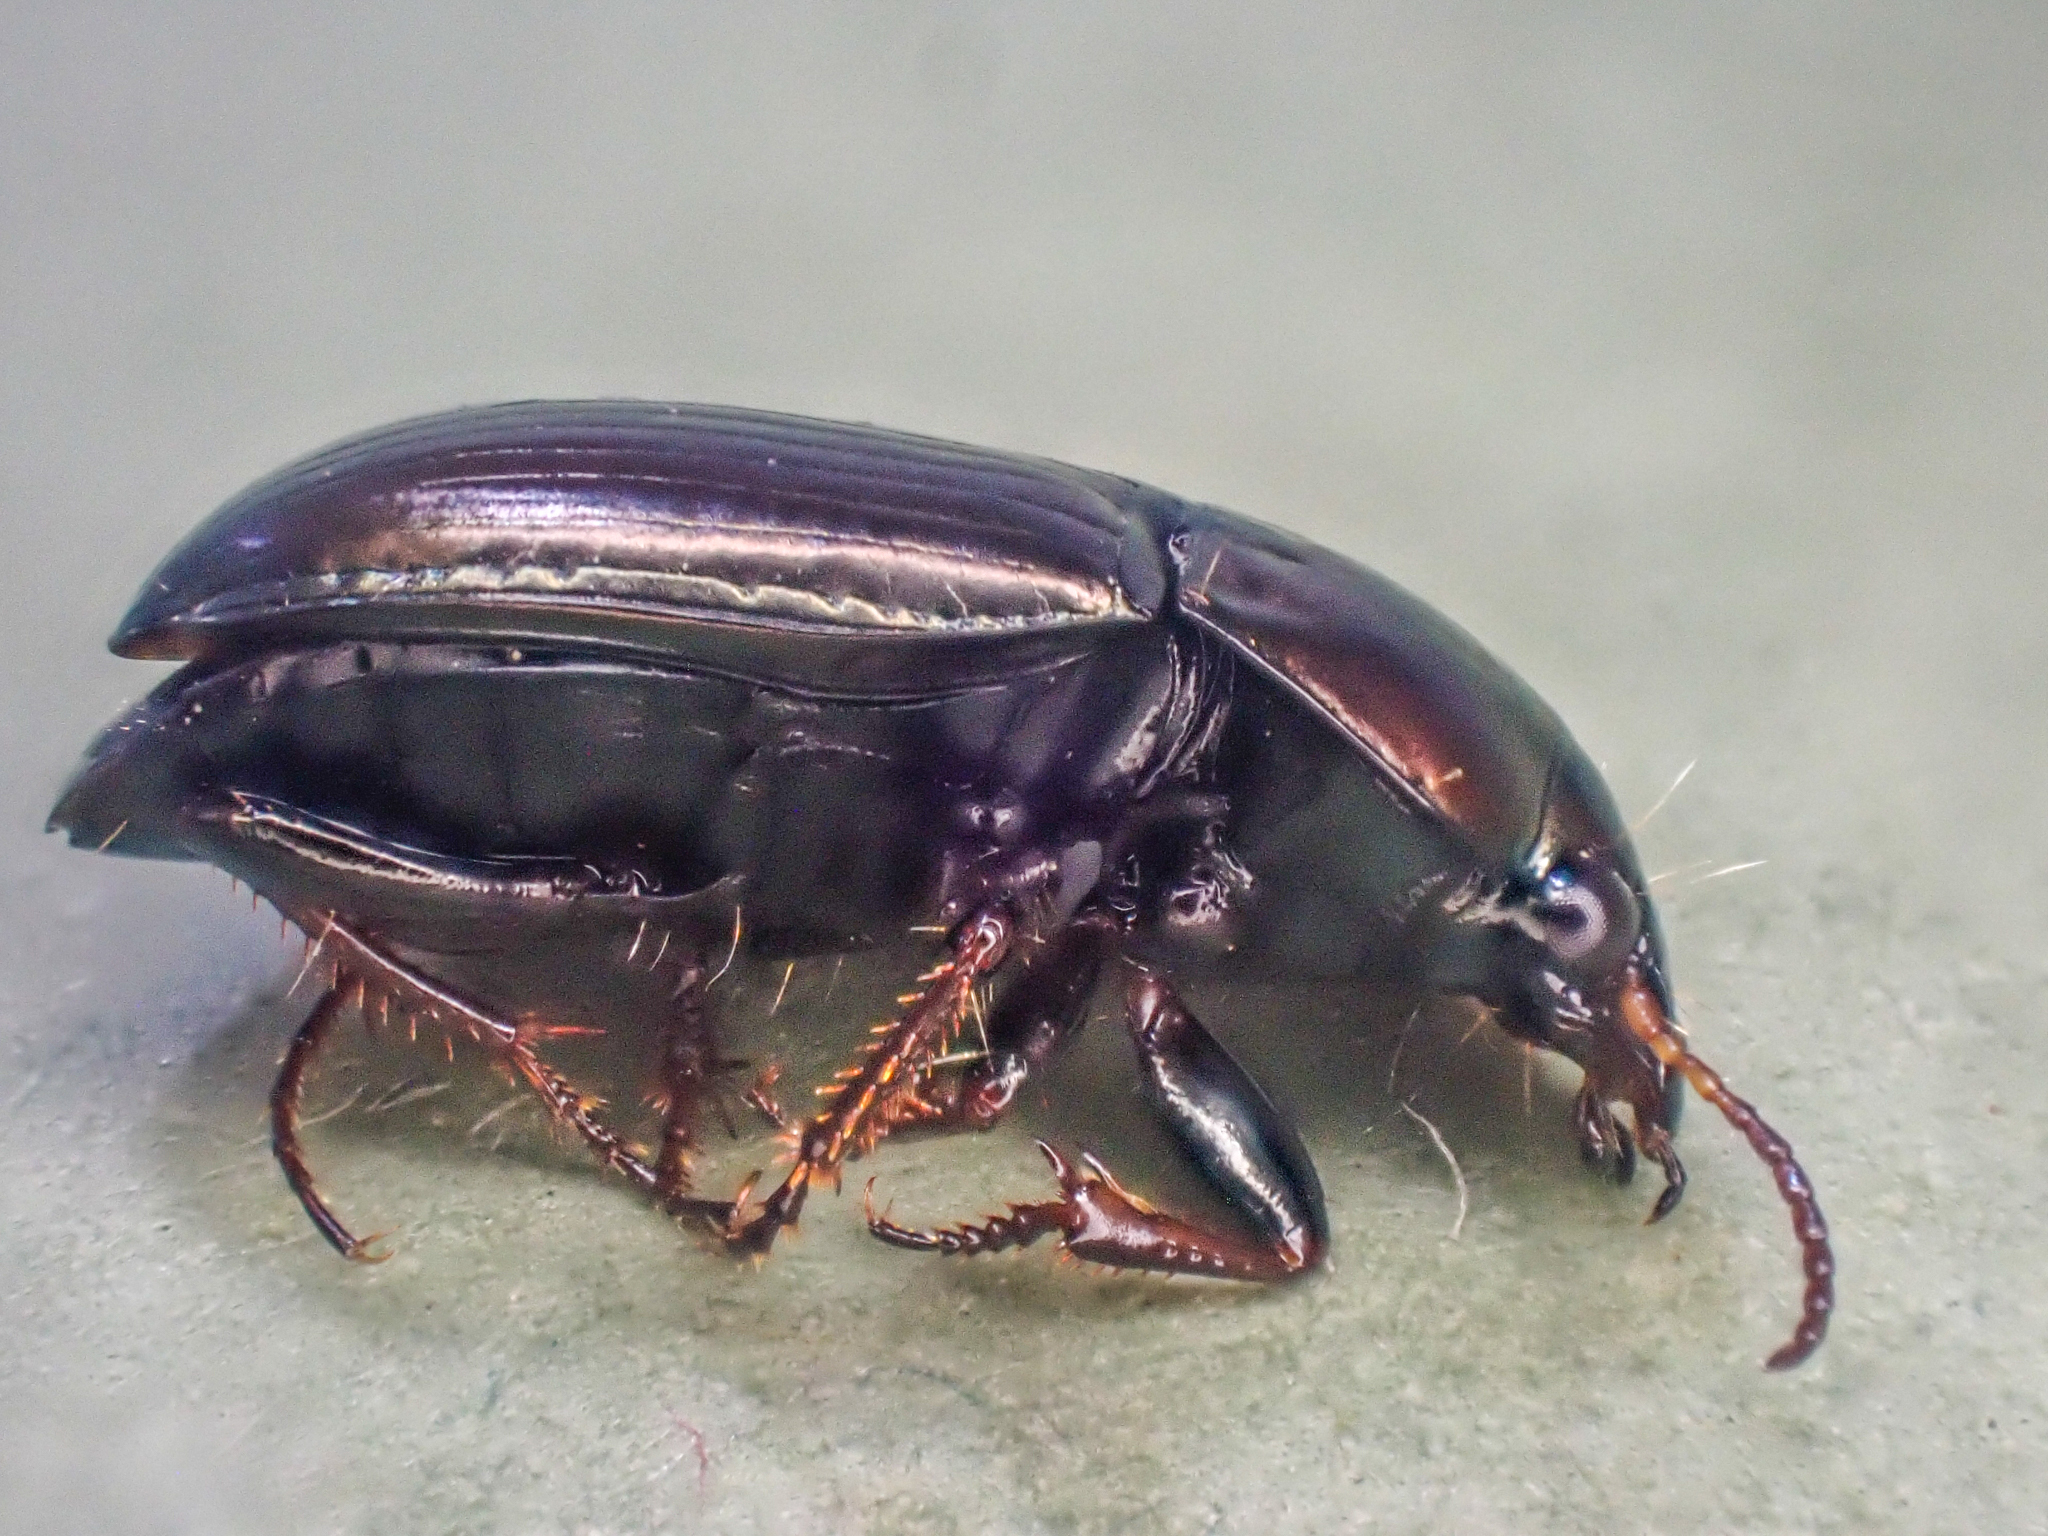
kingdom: Animalia
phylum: Arthropoda
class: Insecta
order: Coleoptera
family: Carabidae
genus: Amara
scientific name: Amara convexa
